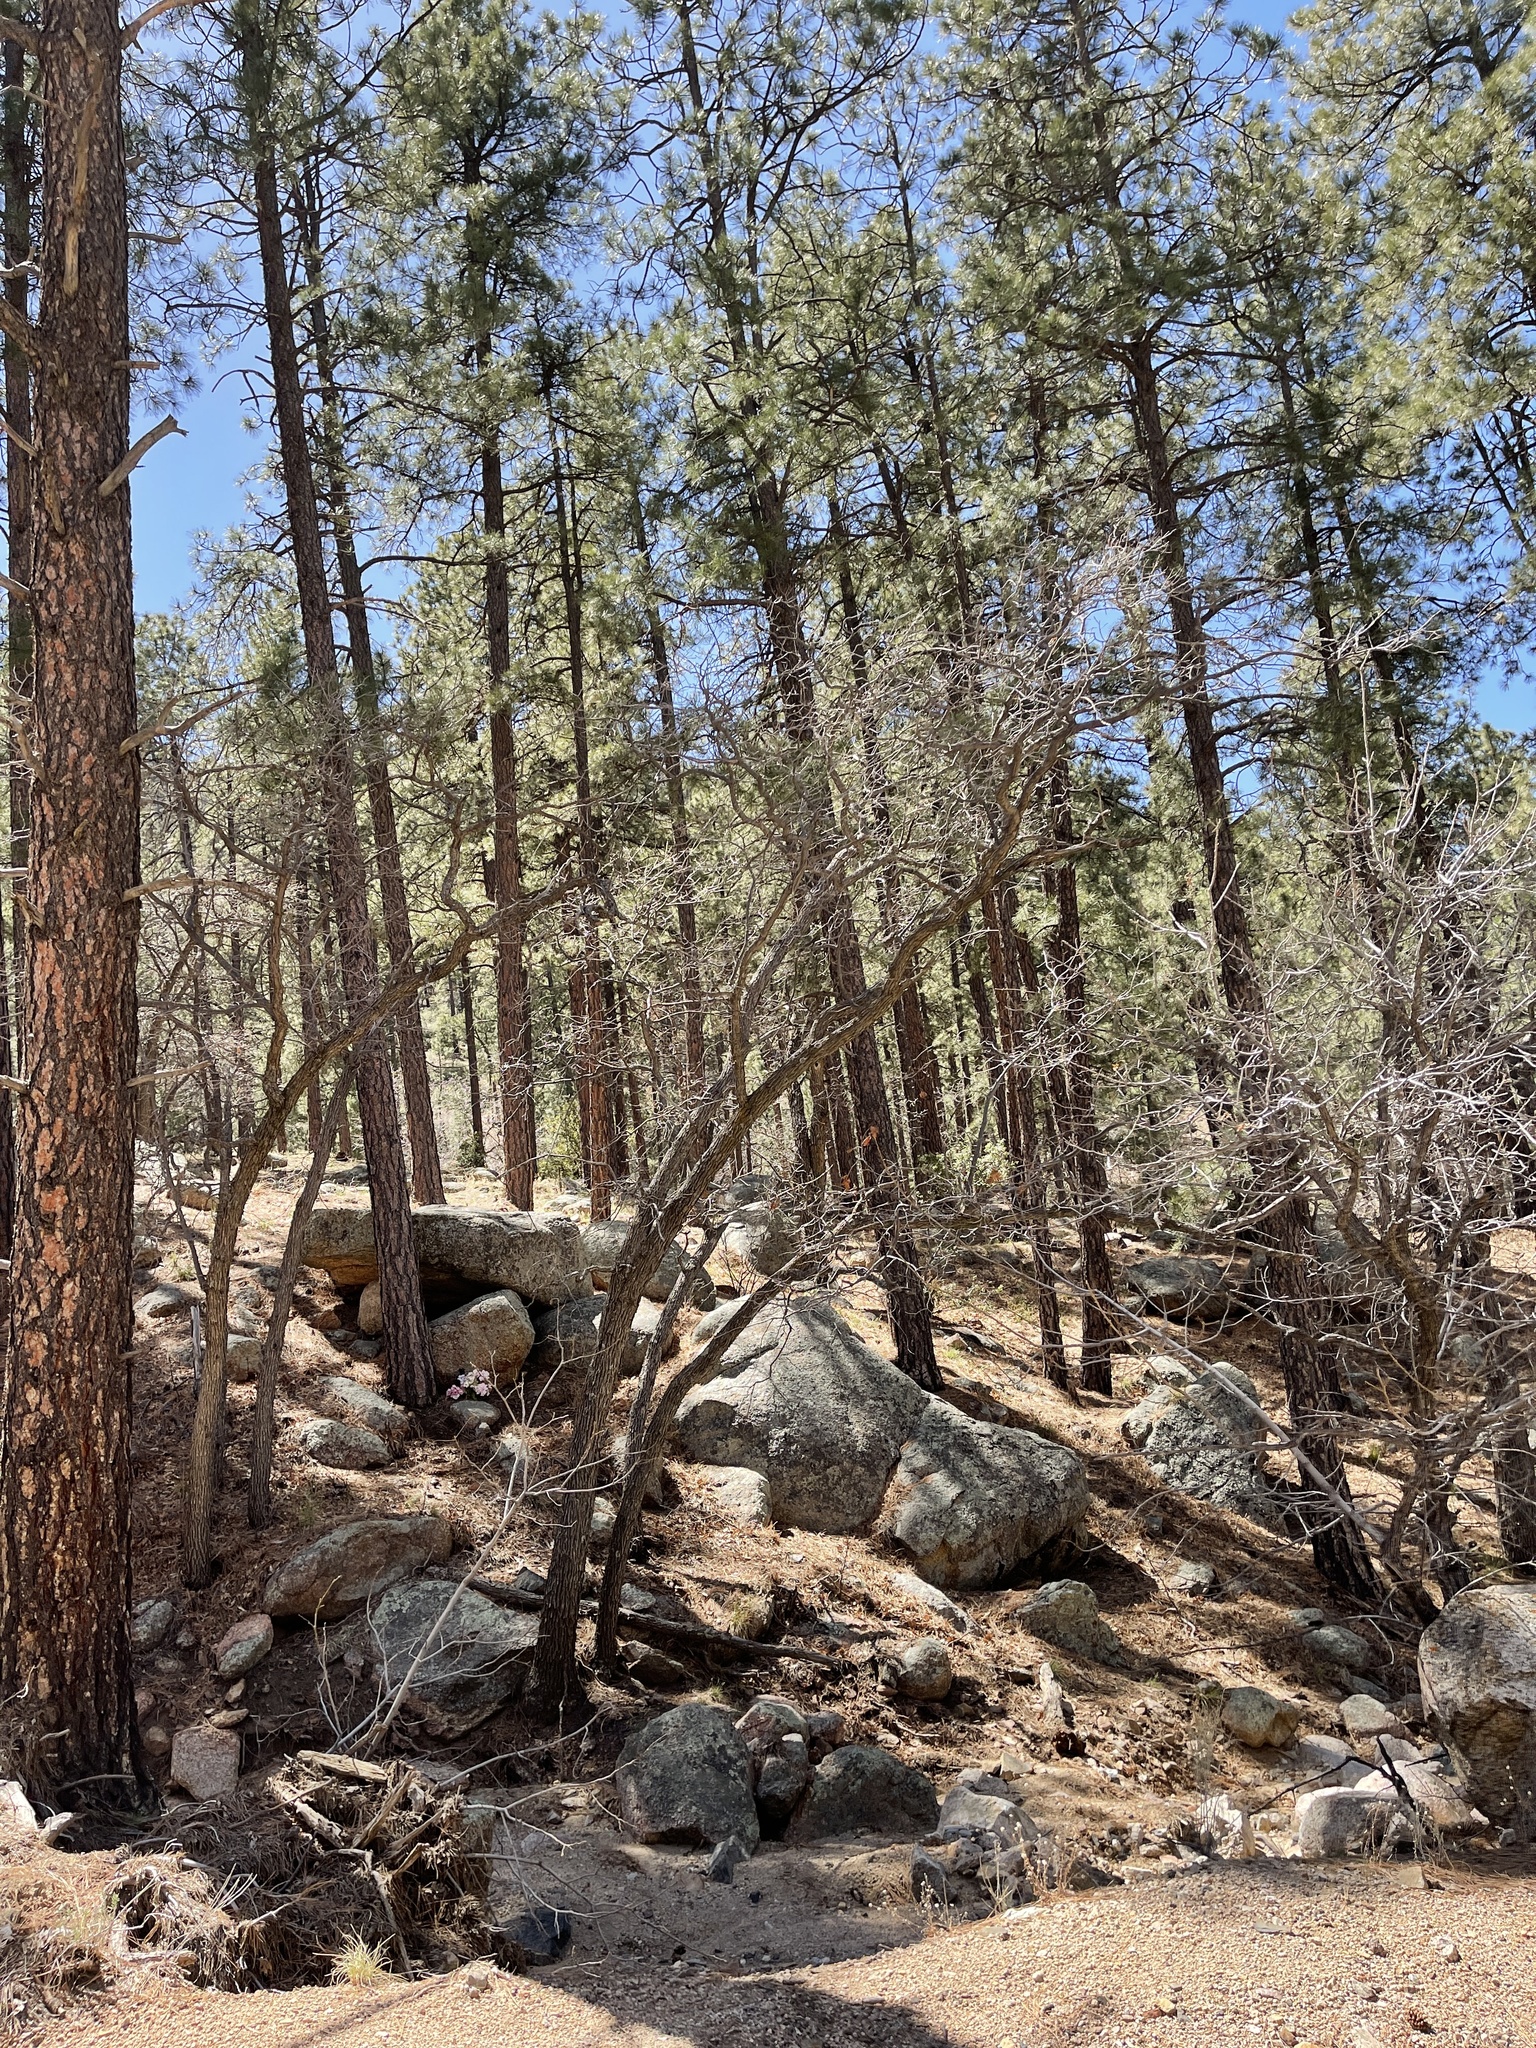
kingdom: Plantae
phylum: Tracheophyta
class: Magnoliopsida
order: Fagales
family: Fagaceae
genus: Quercus
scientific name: Quercus gambelii
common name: Gambel oak
